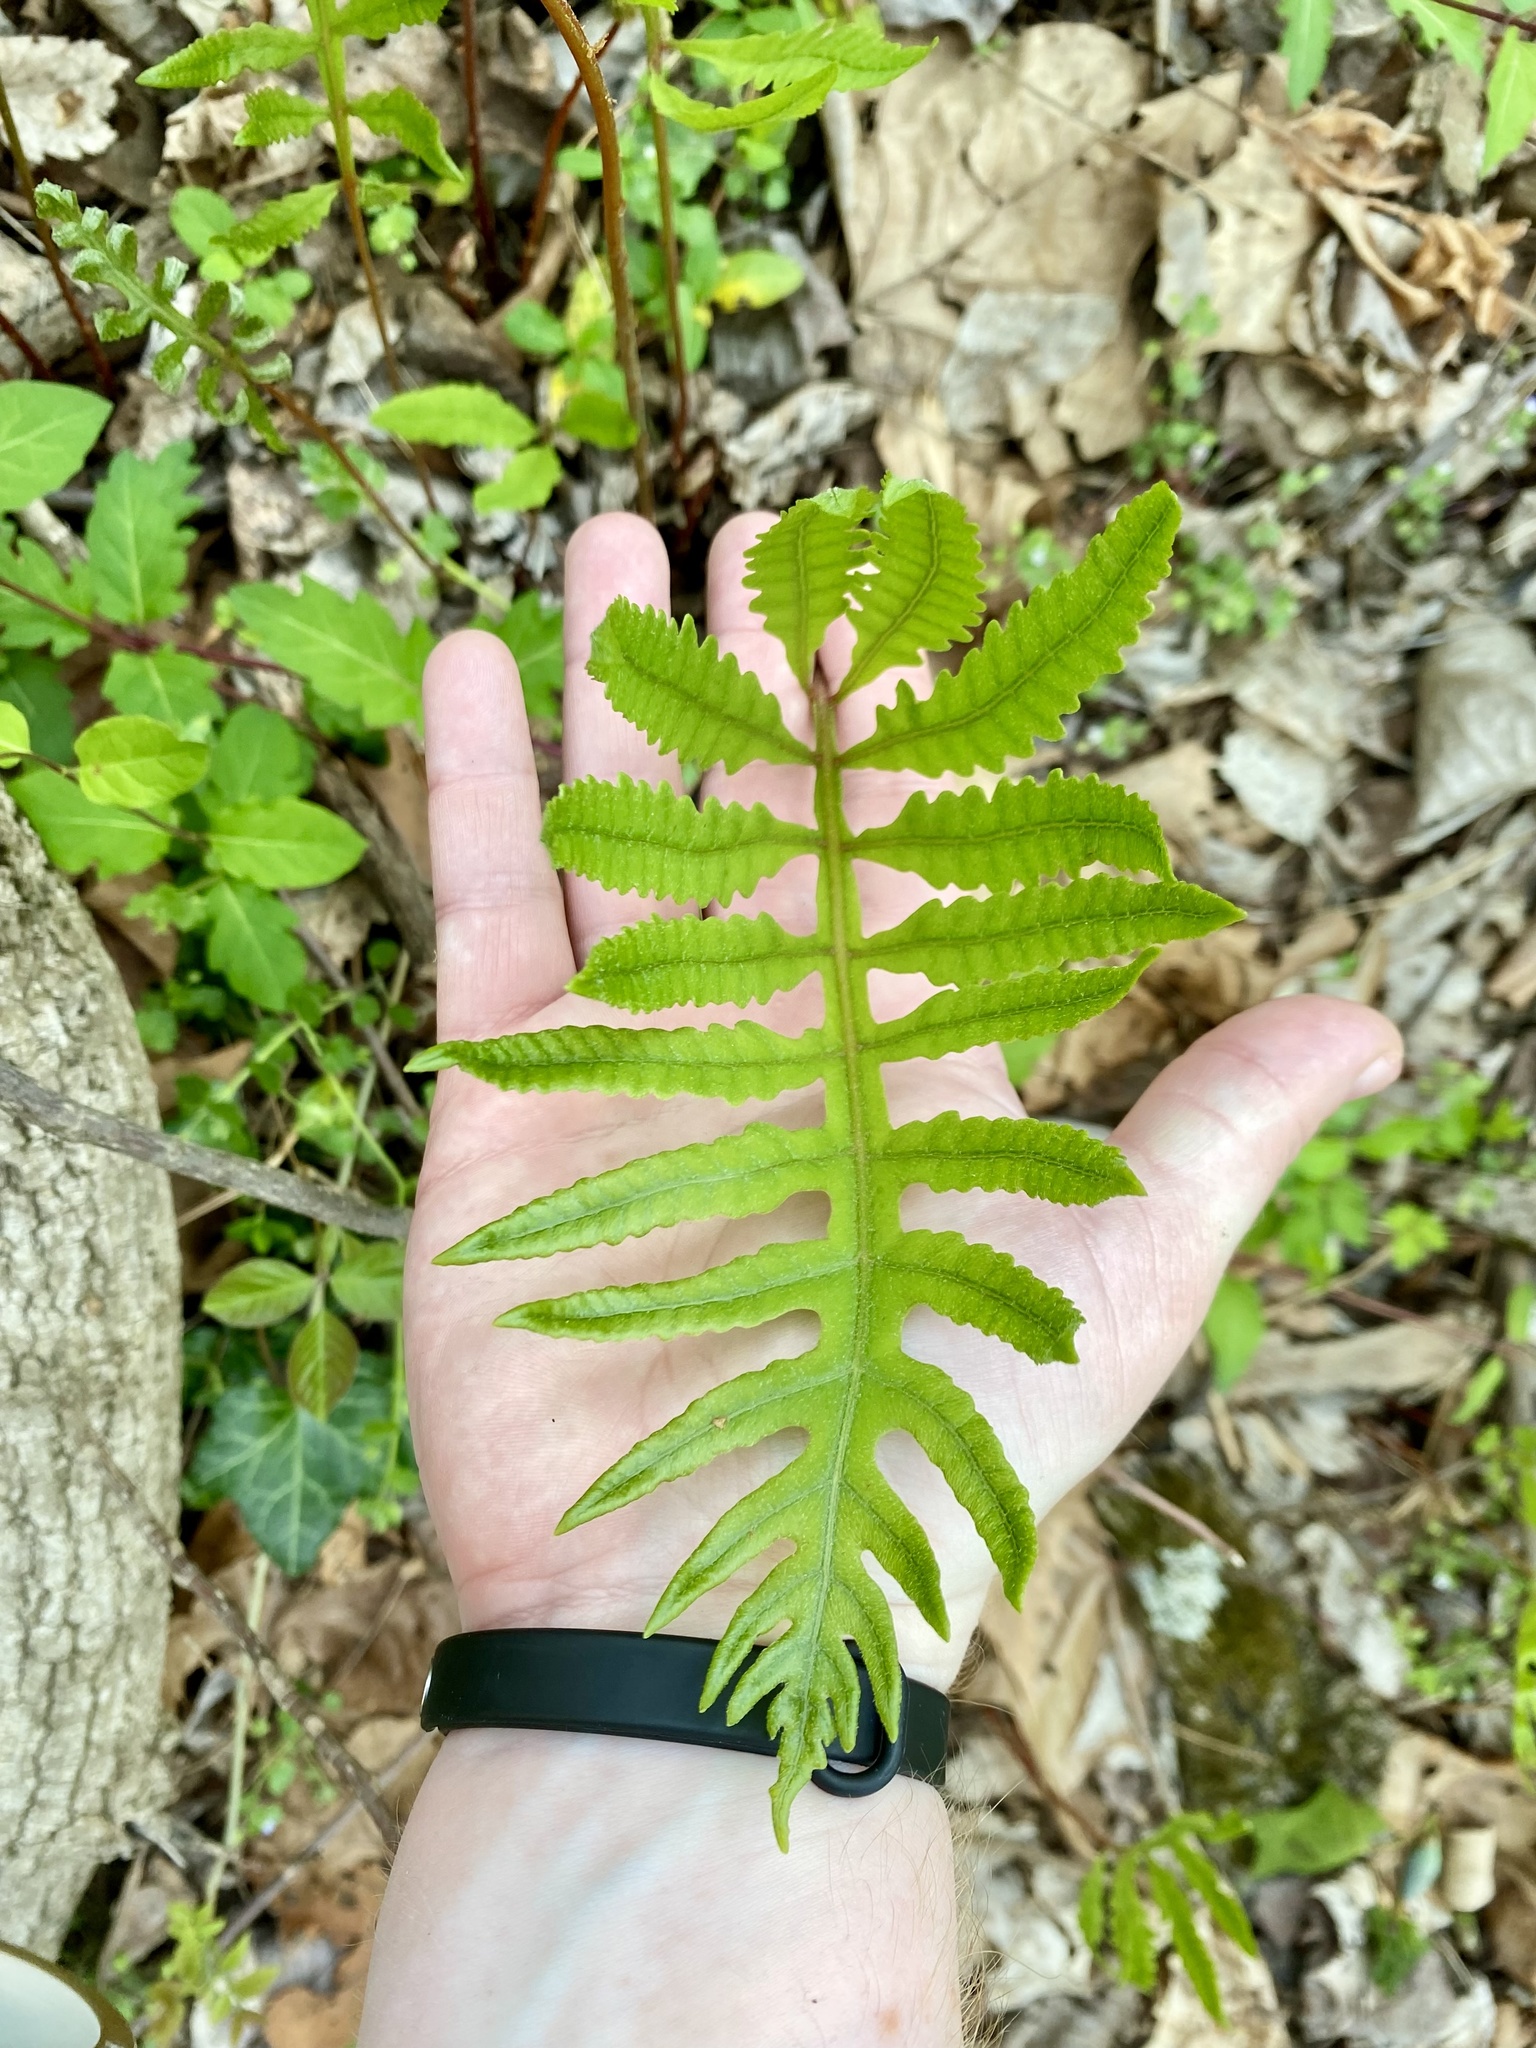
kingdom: Plantae
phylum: Tracheophyta
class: Polypodiopsida
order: Polypodiales
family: Onocleaceae
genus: Onoclea
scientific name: Onoclea sensibilis
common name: Sensitive fern
